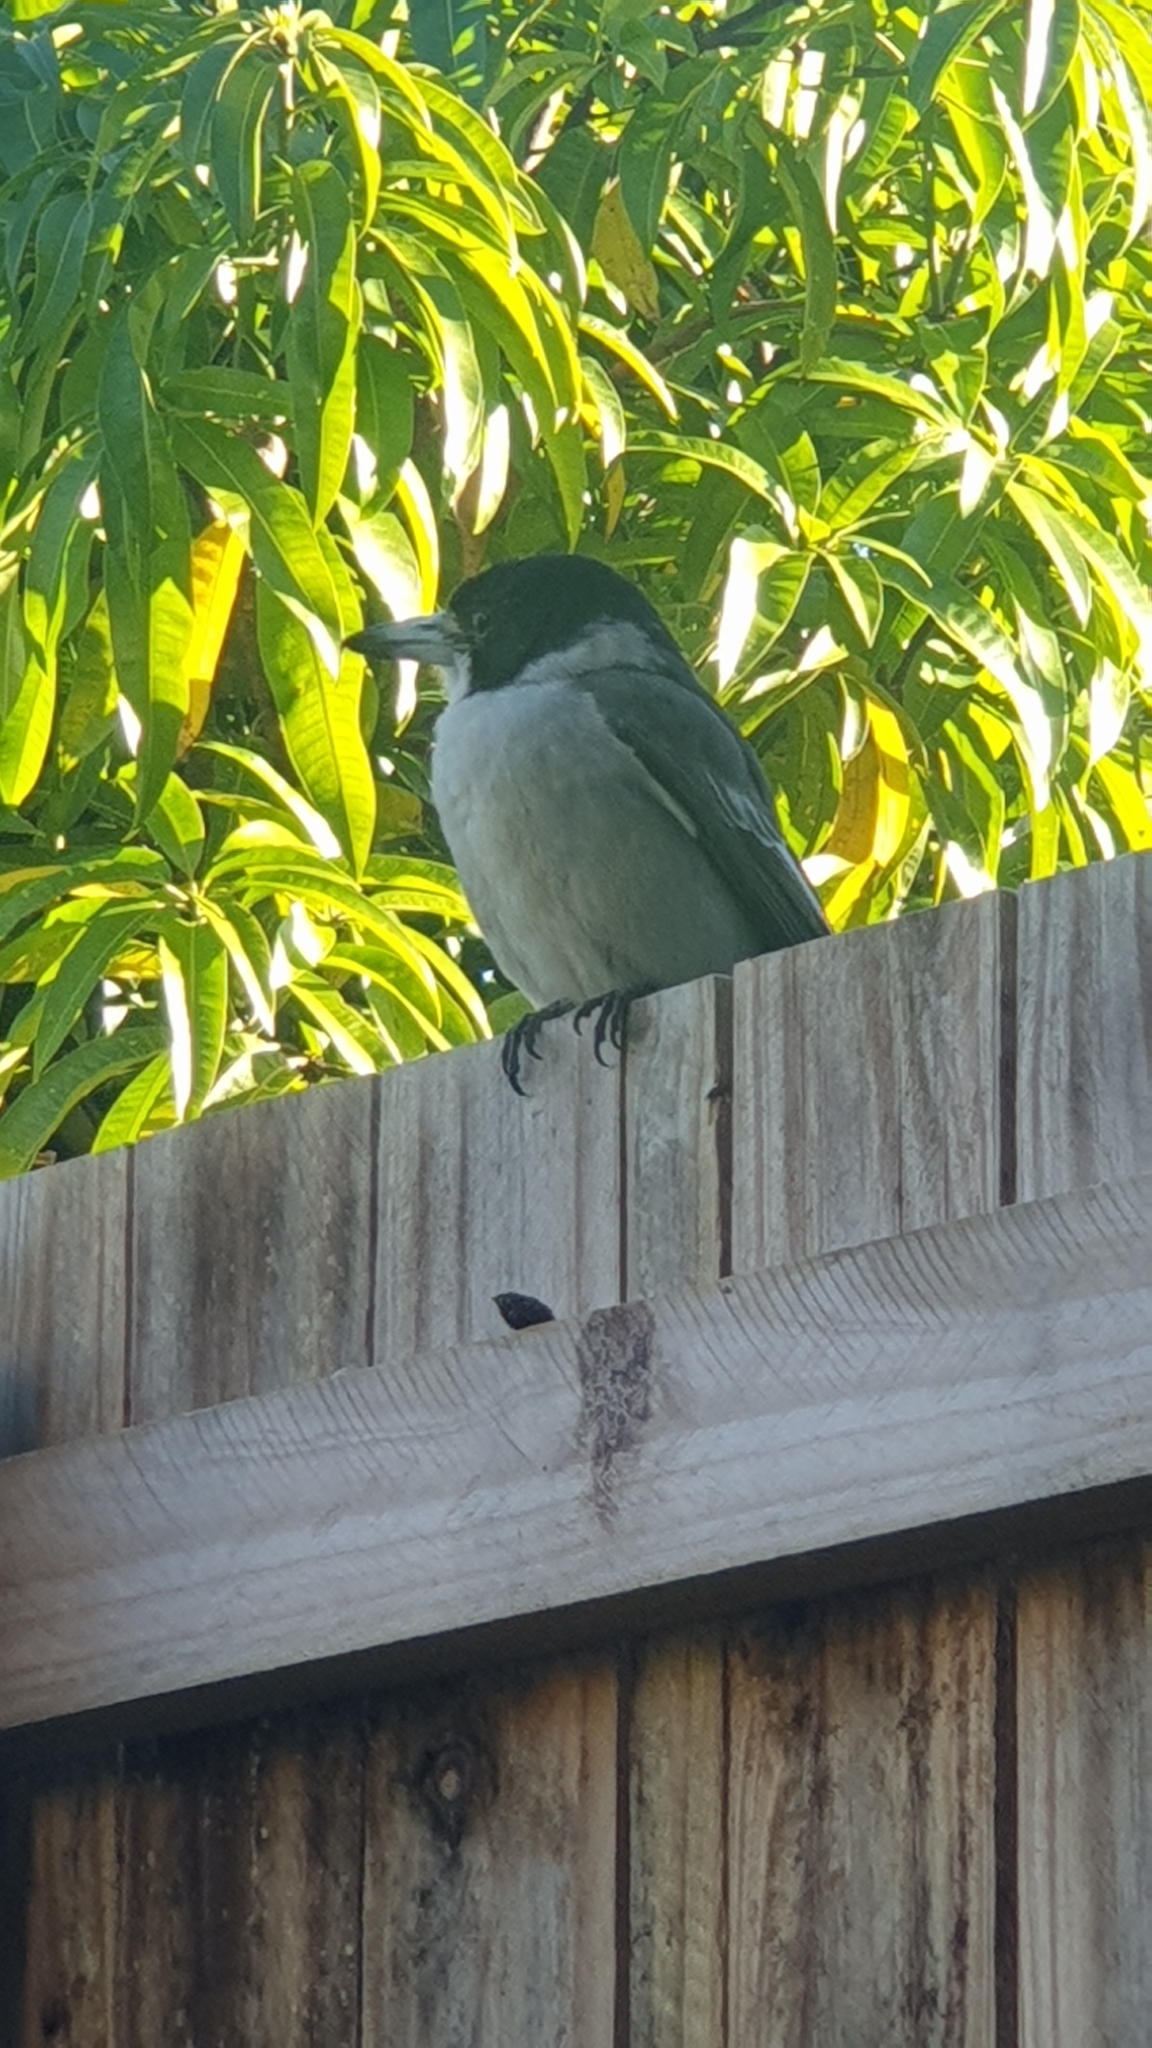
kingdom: Animalia
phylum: Chordata
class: Aves
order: Passeriformes
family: Cracticidae
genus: Cracticus
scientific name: Cracticus torquatus
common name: Grey butcherbird
